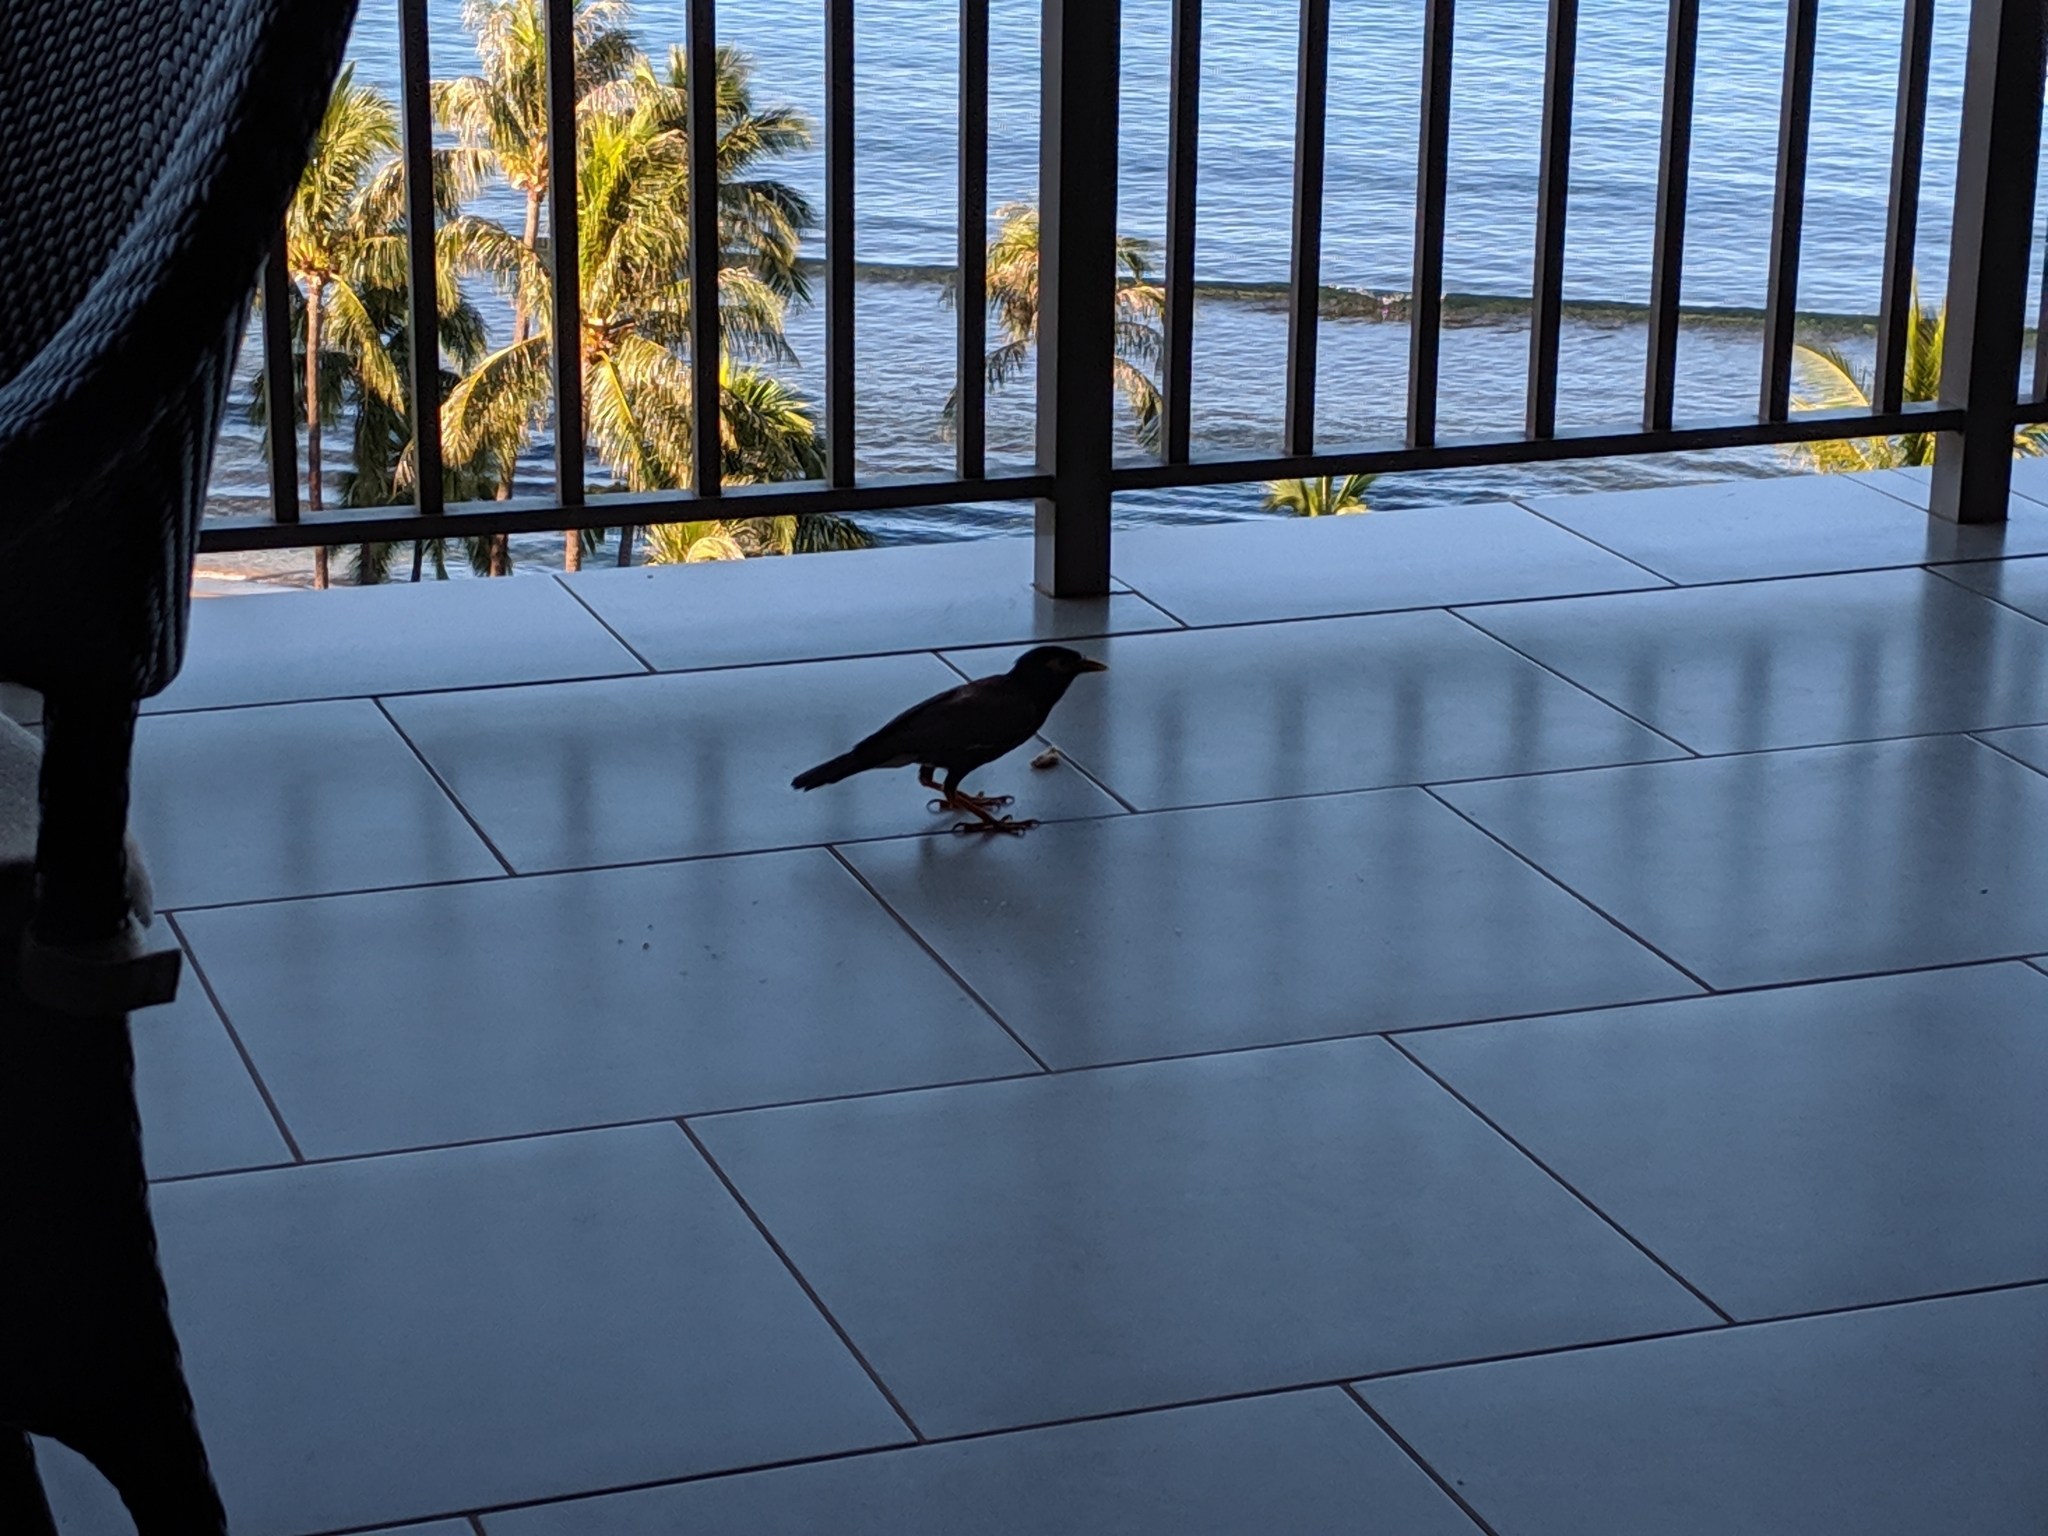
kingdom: Animalia
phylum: Chordata
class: Aves
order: Passeriformes
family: Sturnidae
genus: Acridotheres
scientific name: Acridotheres tristis
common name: Common myna
